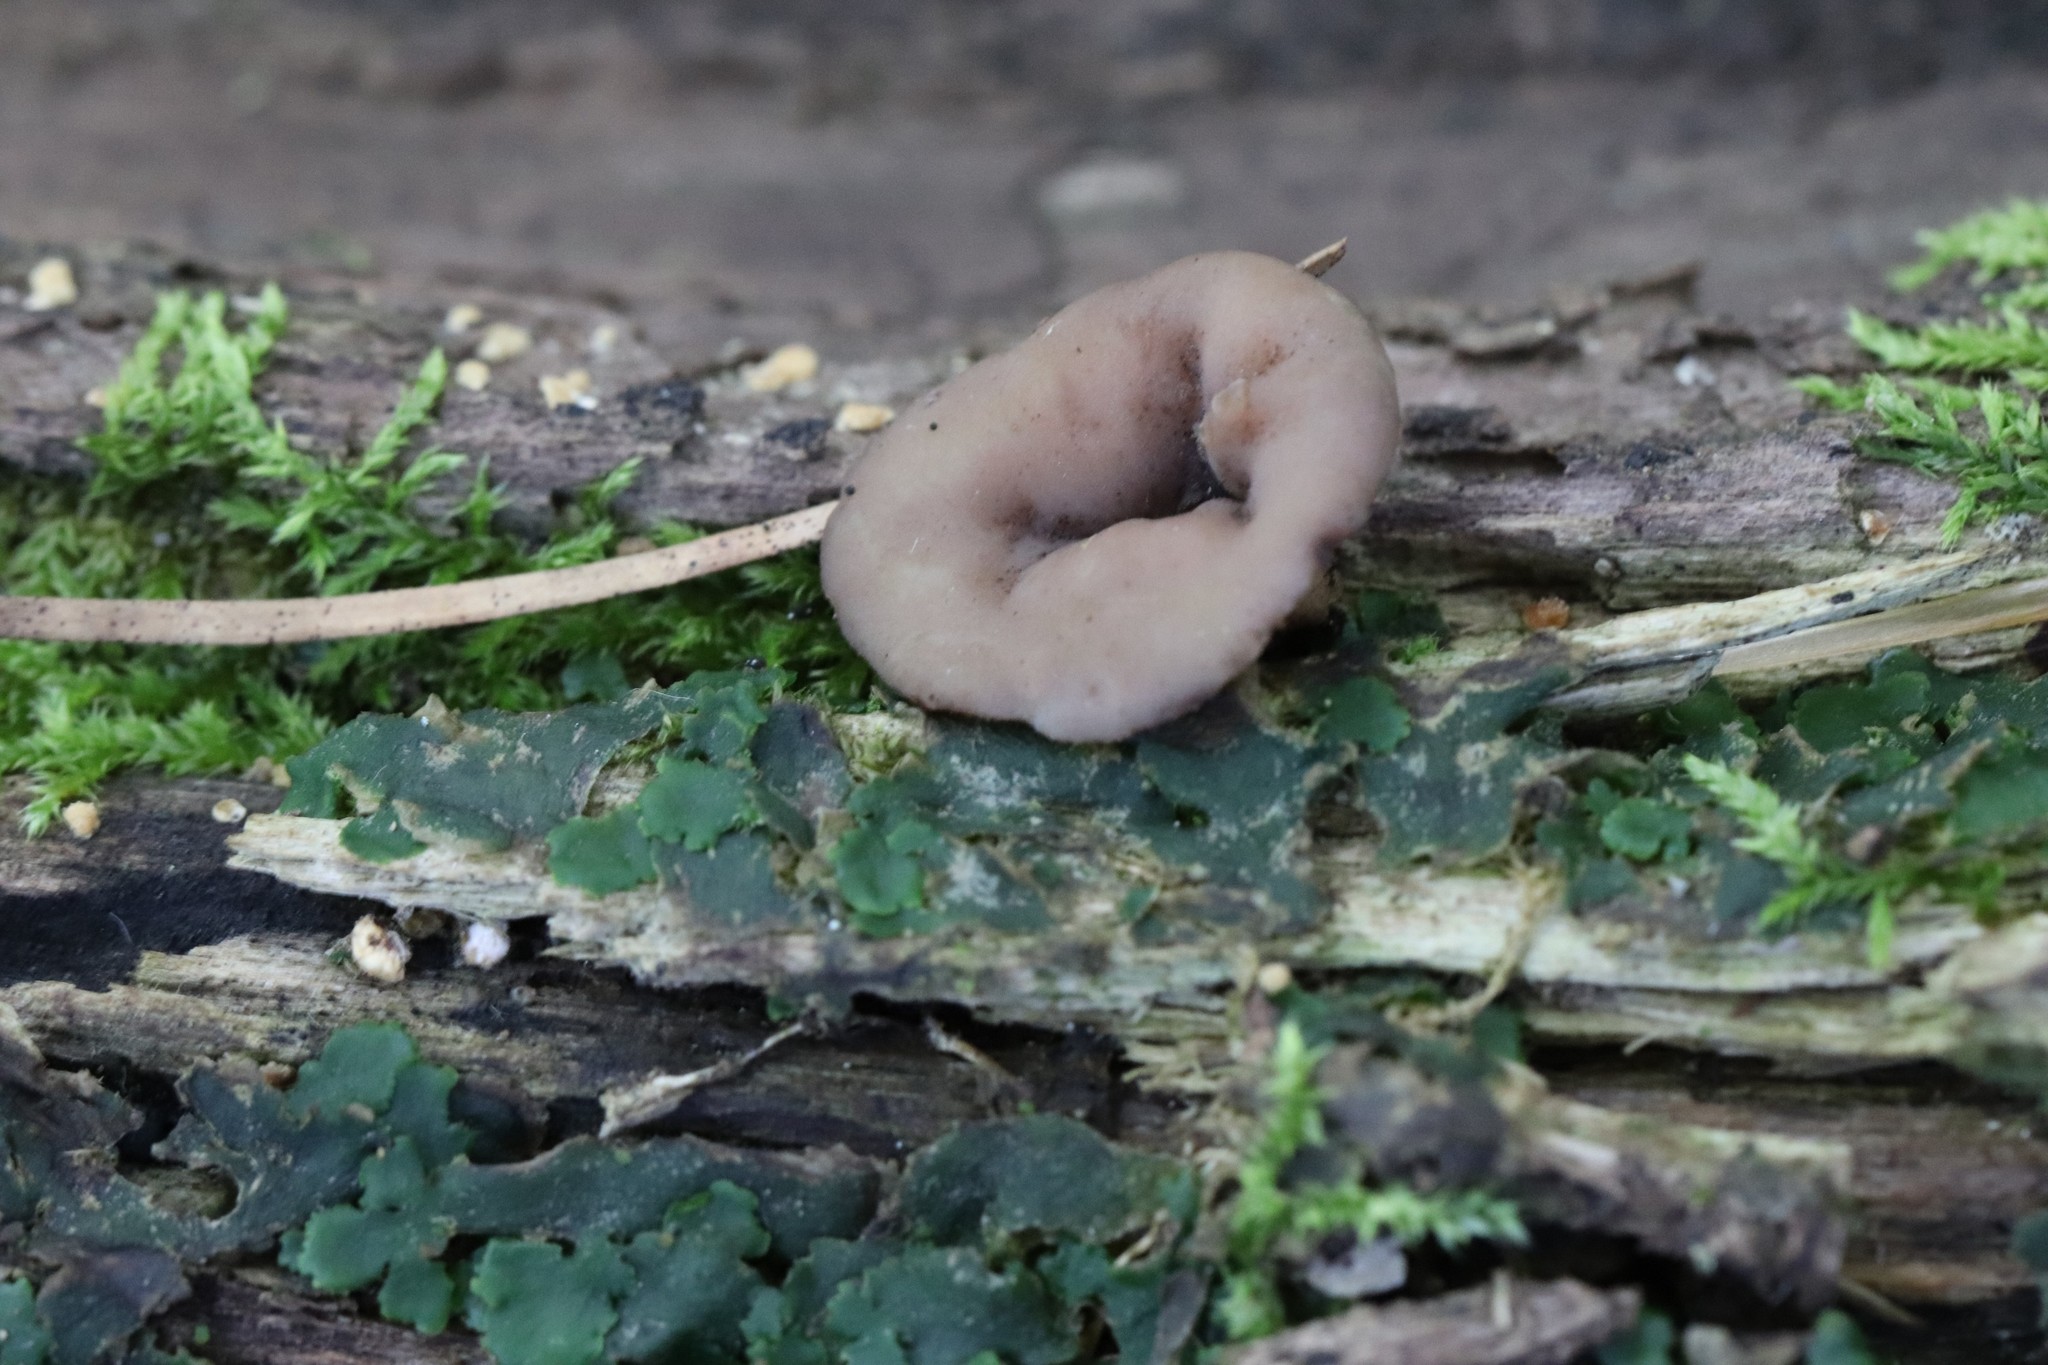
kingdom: Fungi
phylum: Ascomycota
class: Leotiomycetes
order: Helotiales
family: Helotiaceae
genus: Tatraea
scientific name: Tatraea macrospora
